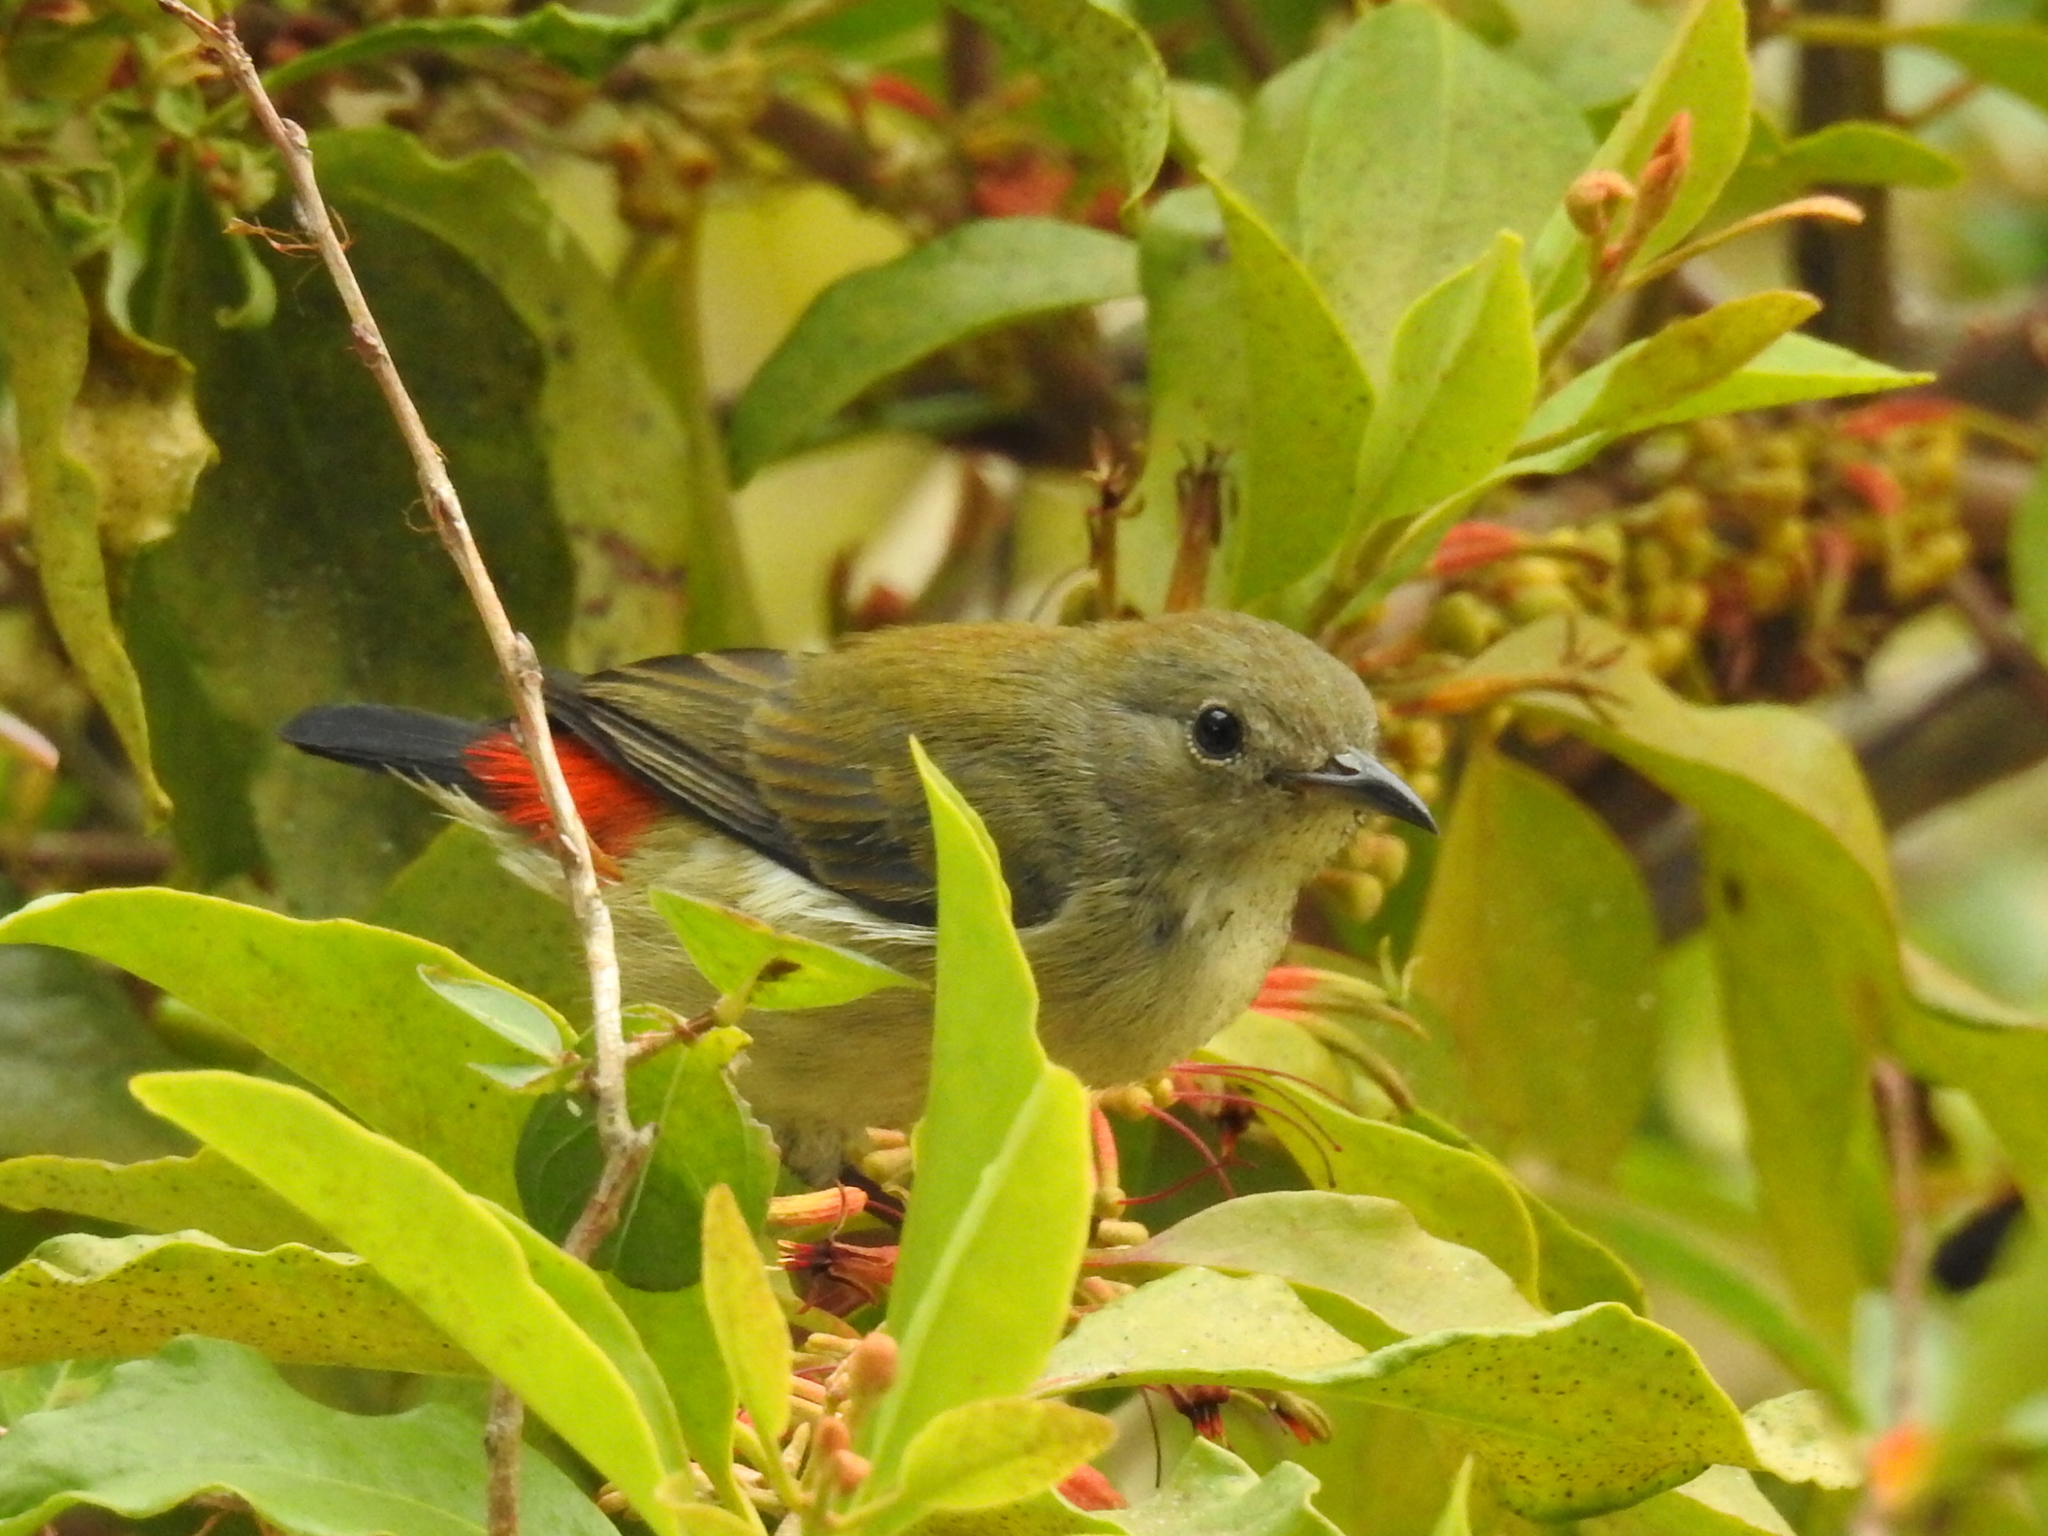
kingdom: Animalia
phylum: Chordata
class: Aves
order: Passeriformes
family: Dicaeidae
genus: Dicaeum
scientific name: Dicaeum cruentatum
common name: Scarlet-backed flowerpecker
